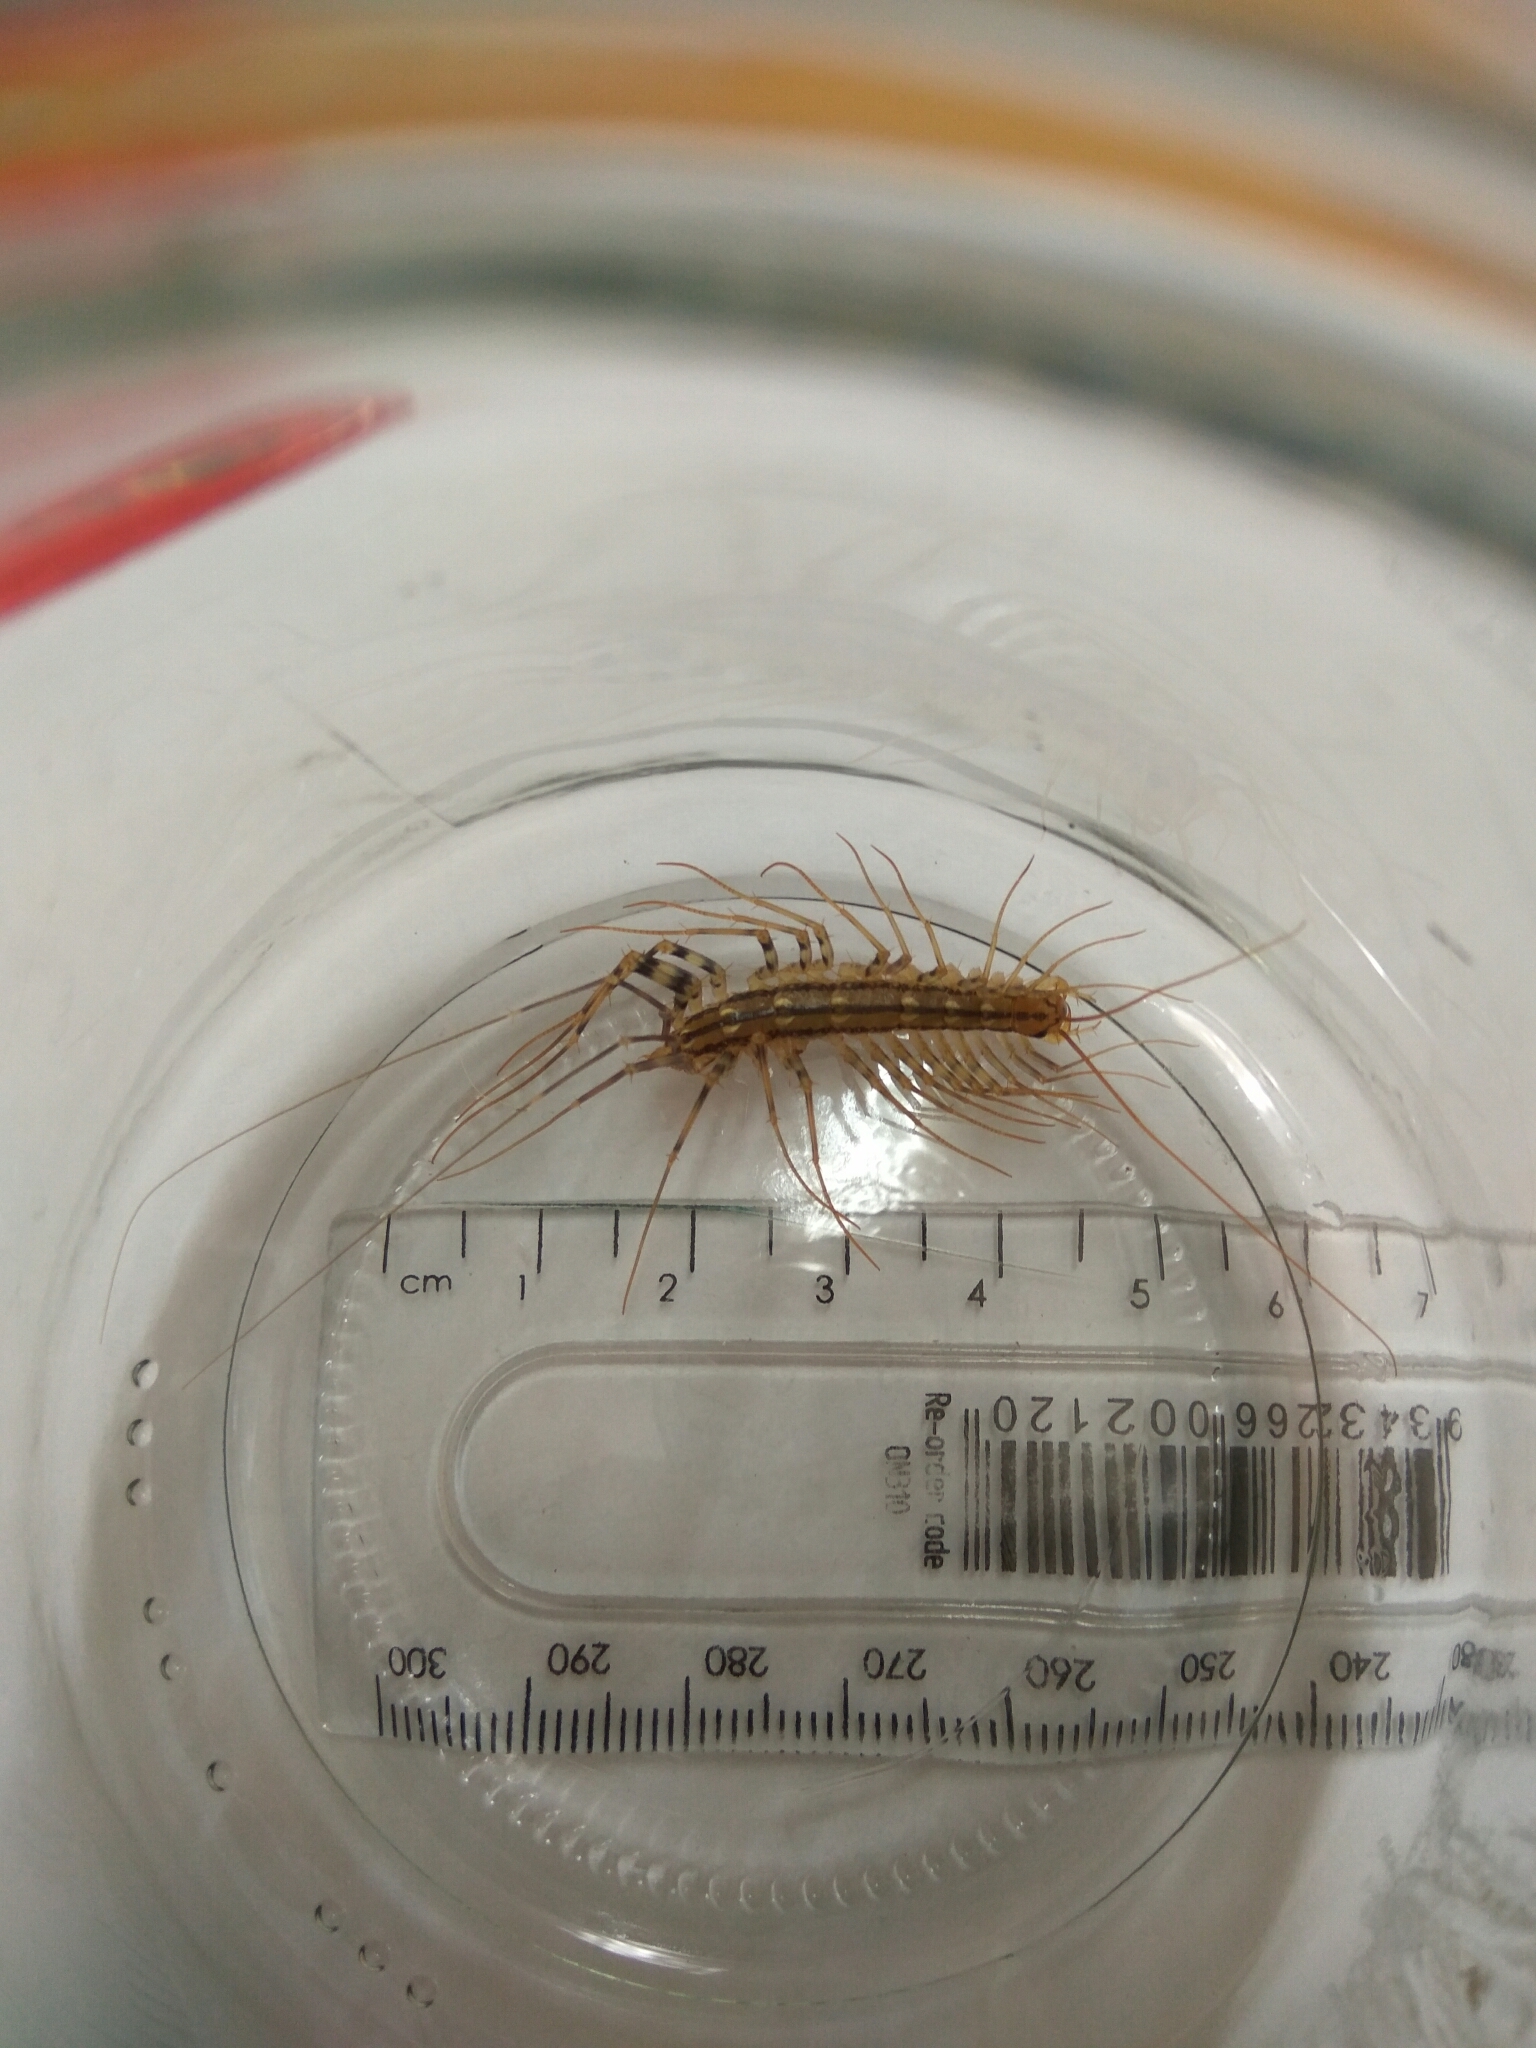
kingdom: Animalia
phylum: Arthropoda
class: Chilopoda
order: Scutigeromorpha
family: Scutigeridae
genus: Scutigera
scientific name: Scutigera coleoptrata
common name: House centipede
